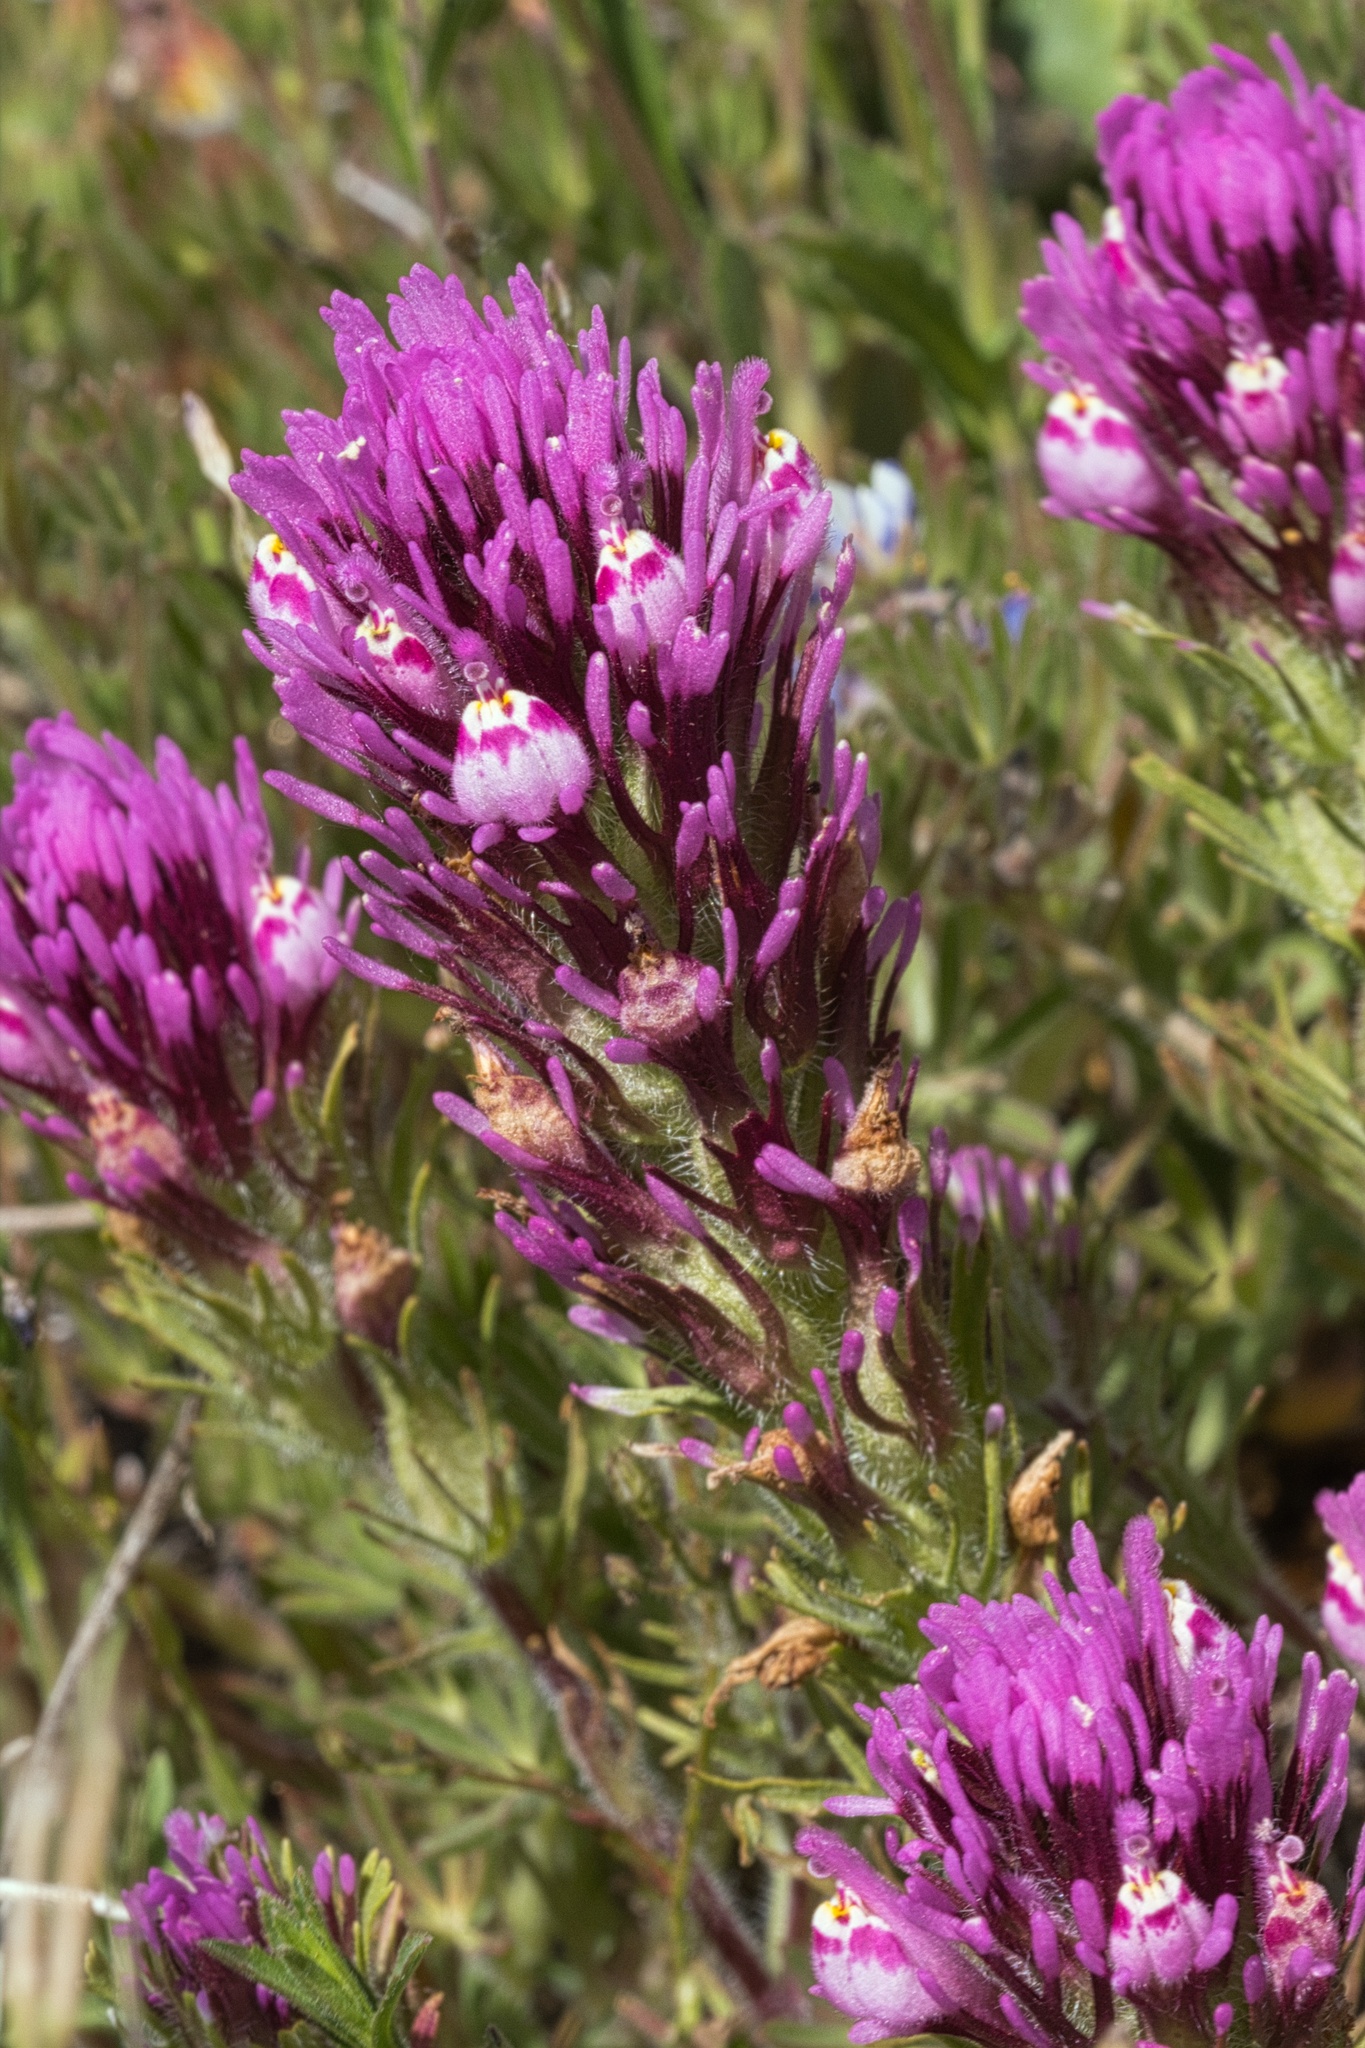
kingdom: Plantae
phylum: Tracheophyta
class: Magnoliopsida
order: Lamiales
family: Orobanchaceae
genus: Castilleja
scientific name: Castilleja exserta
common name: Purple owl-clover
